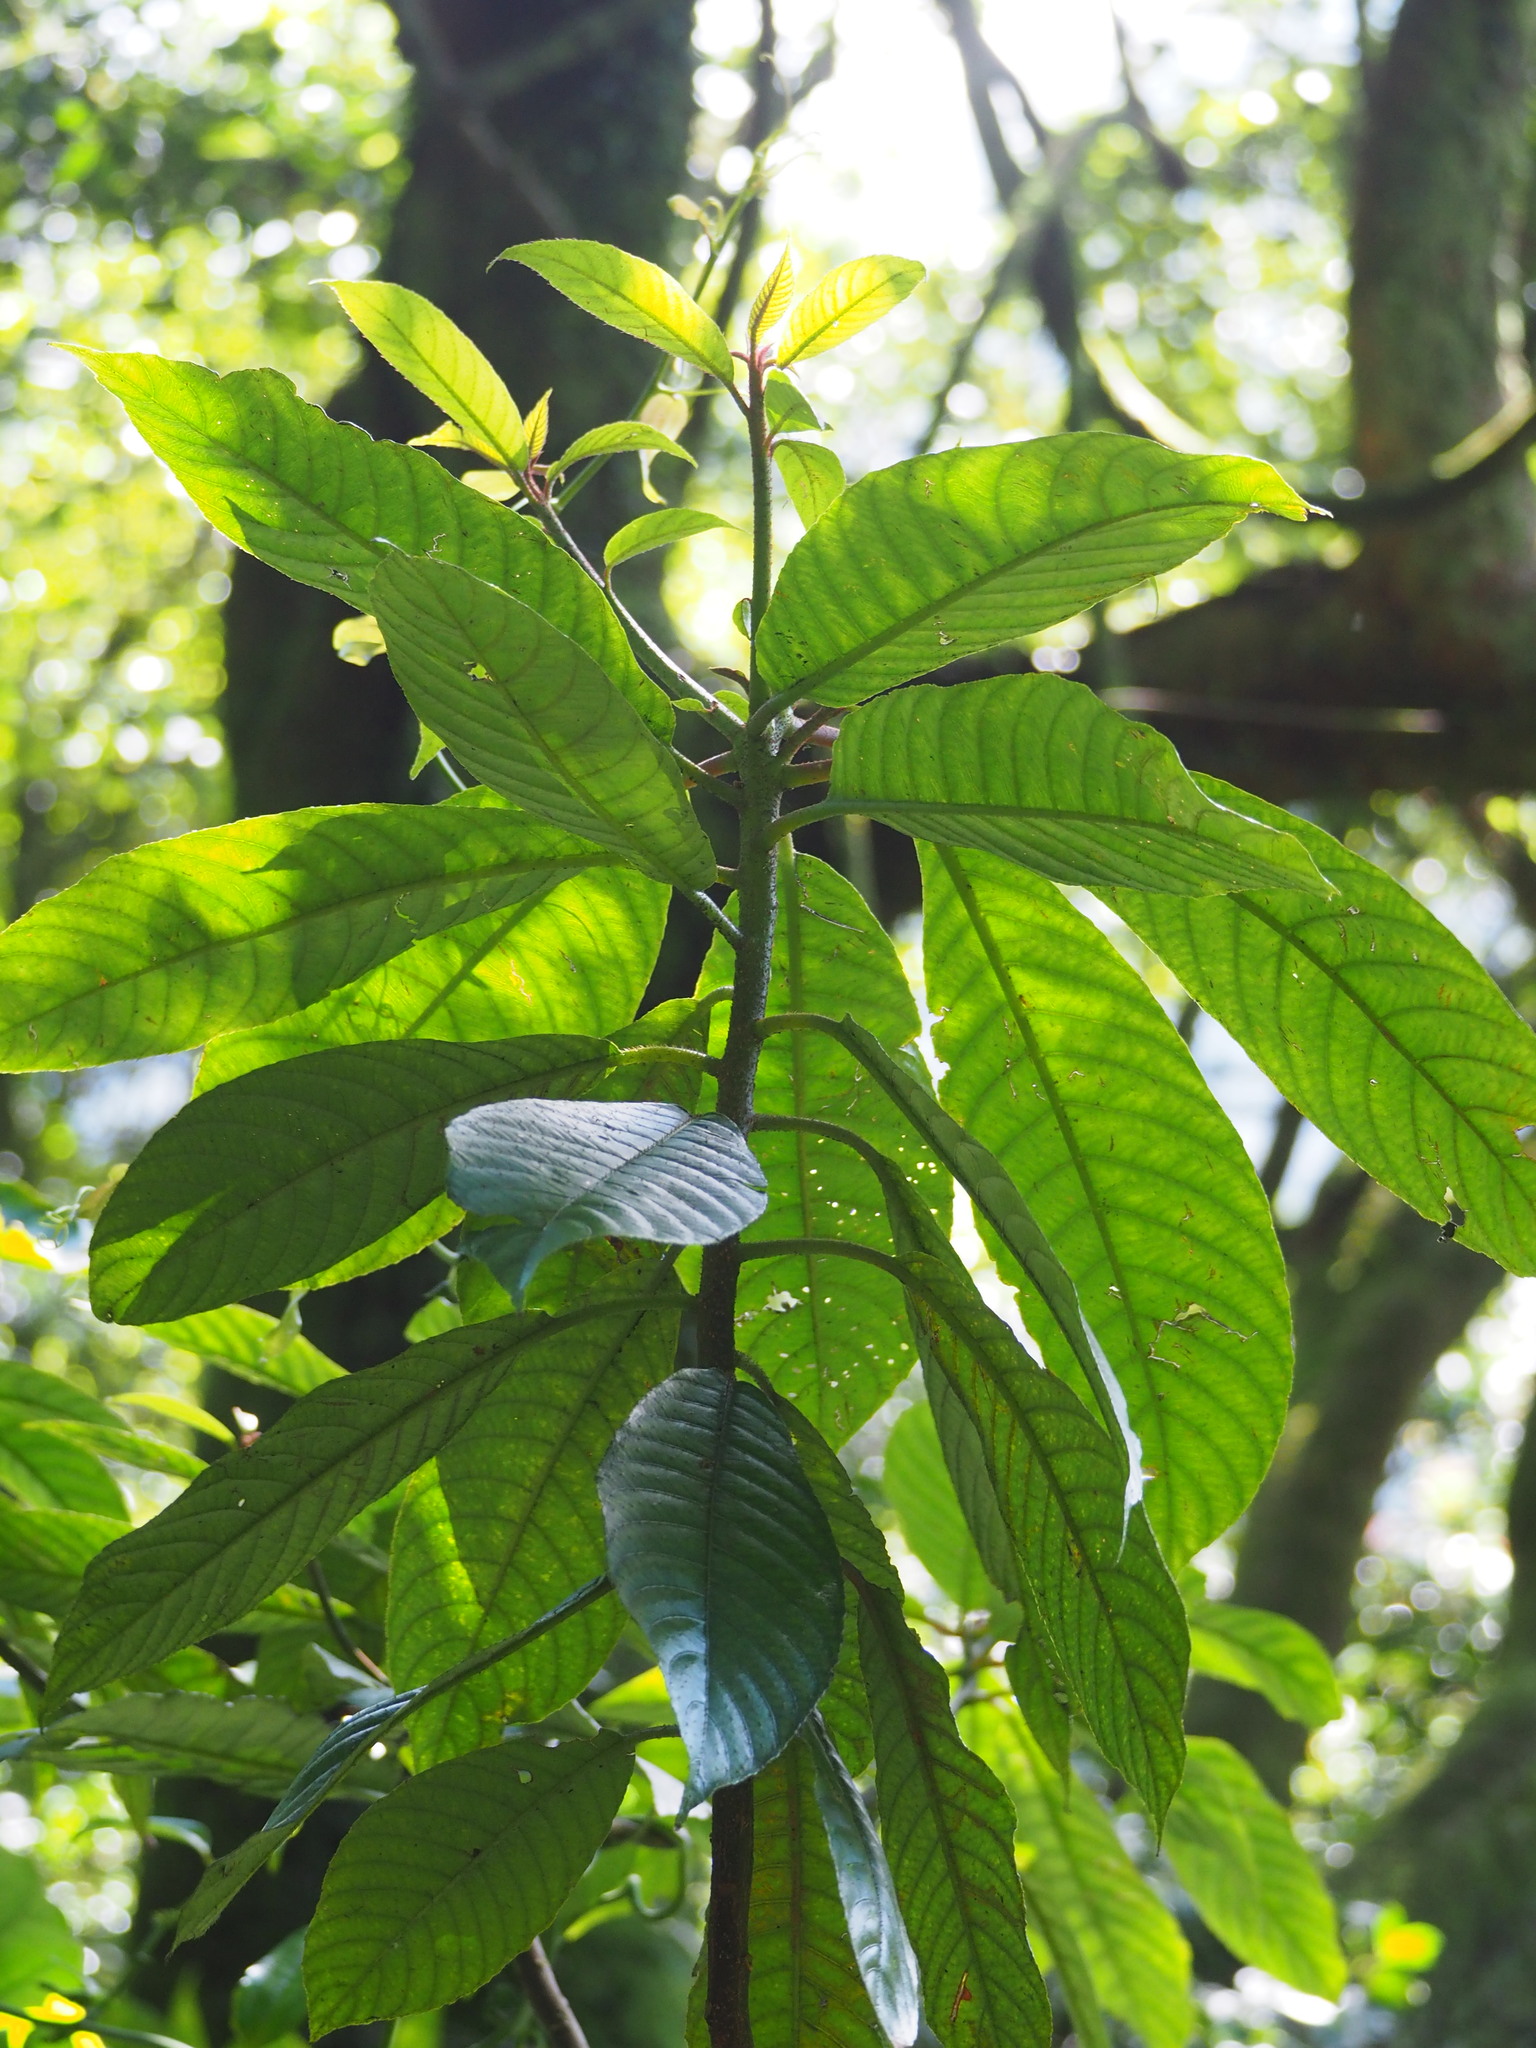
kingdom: Plantae
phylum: Tracheophyta
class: Magnoliopsida
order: Ericales
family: Actinidiaceae
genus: Saurauia
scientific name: Saurauia tristyla
